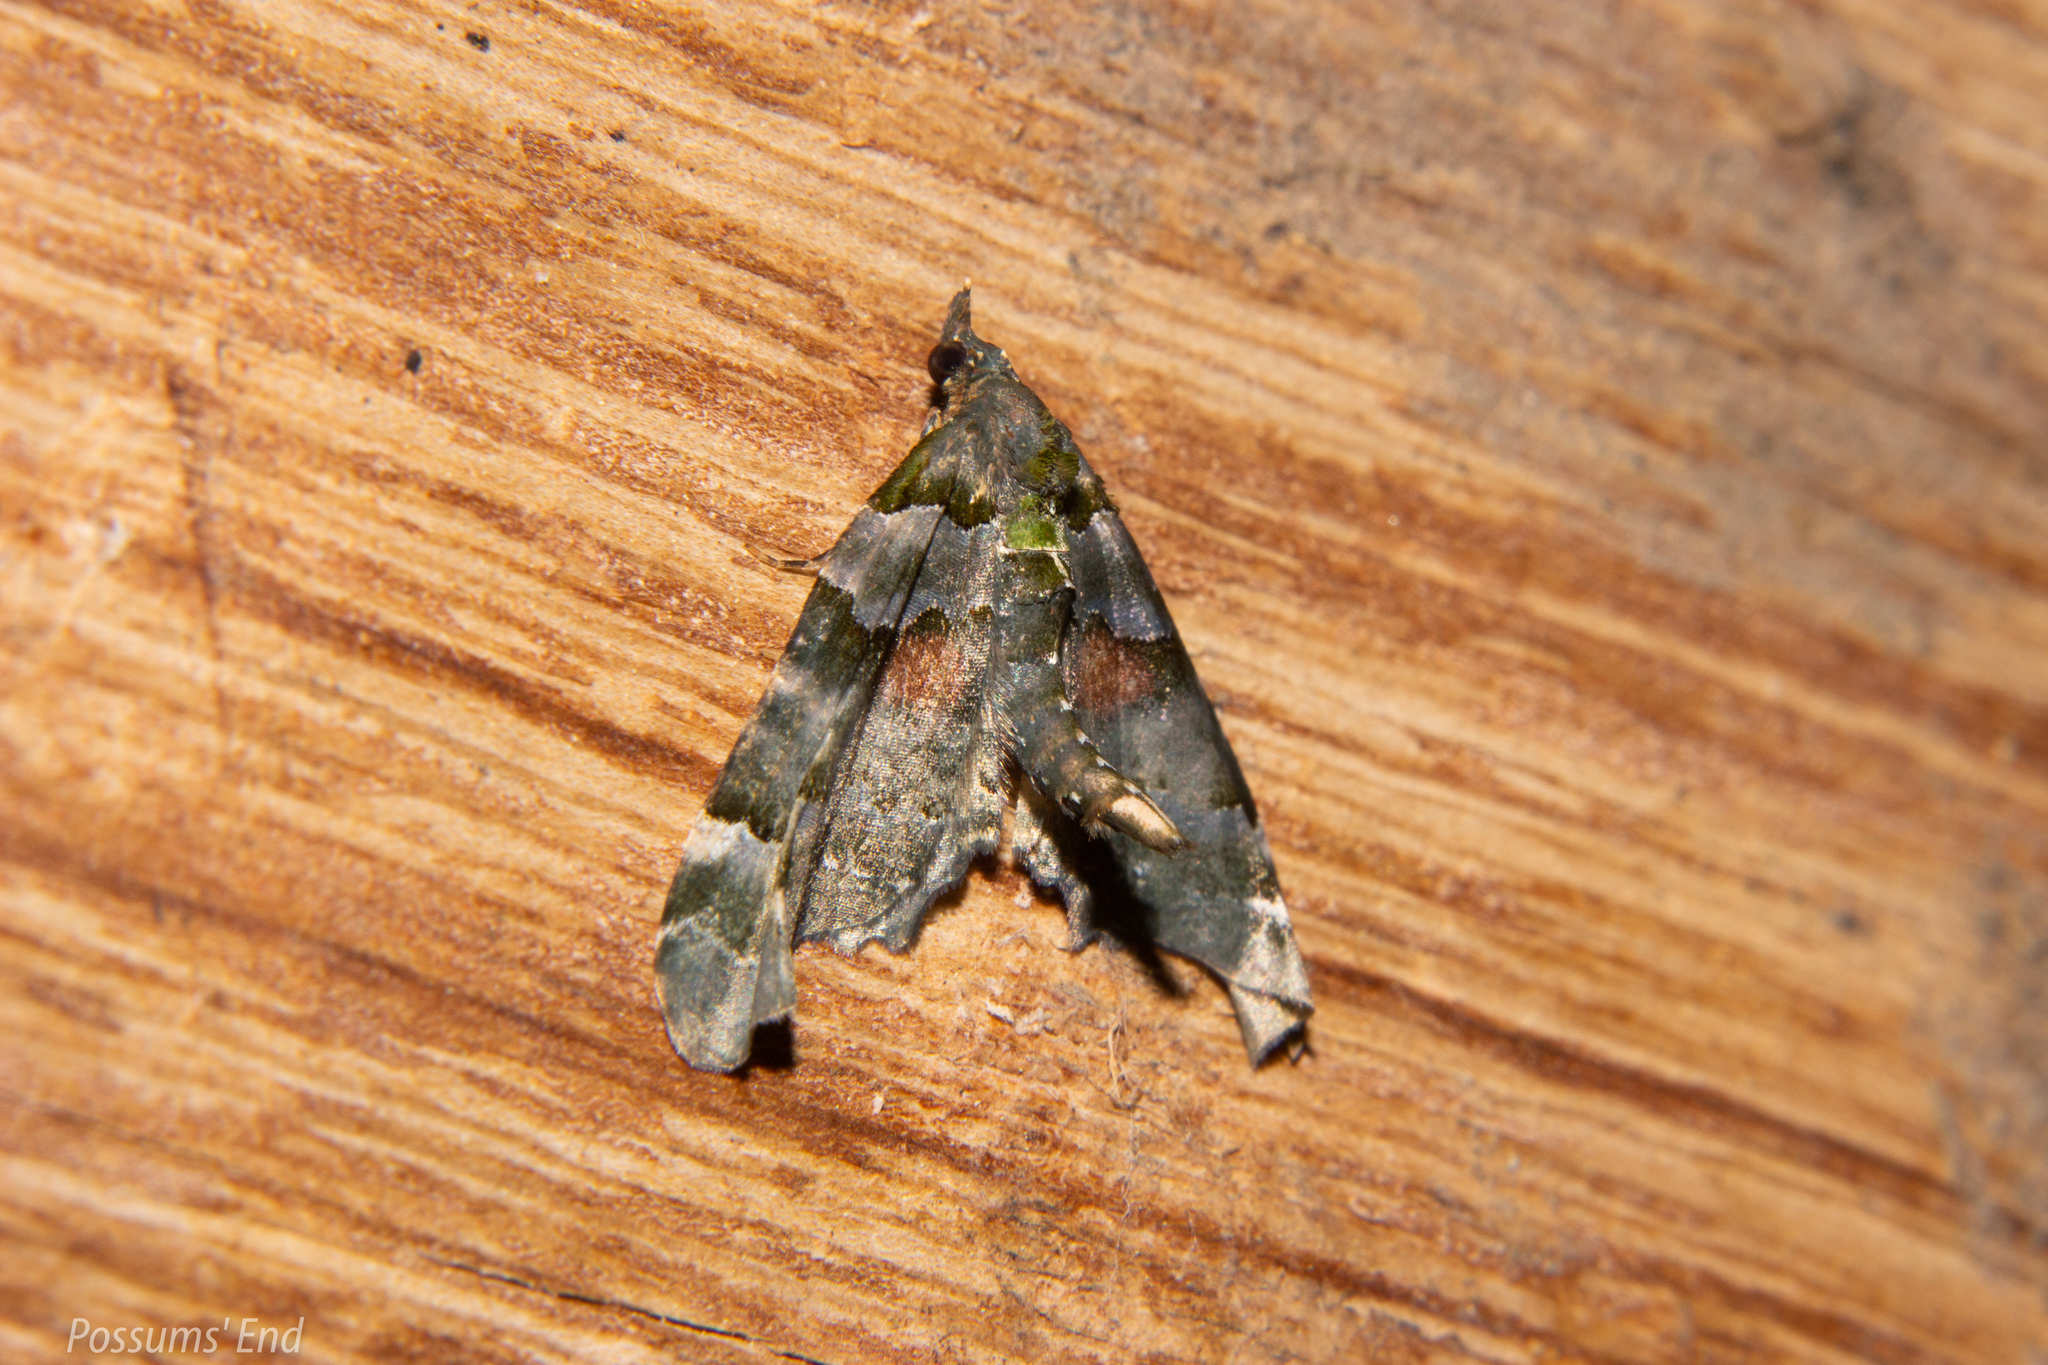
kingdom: Animalia
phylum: Arthropoda
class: Insecta
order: Lepidoptera
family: Geometridae
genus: Elvia
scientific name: Elvia glaucata
